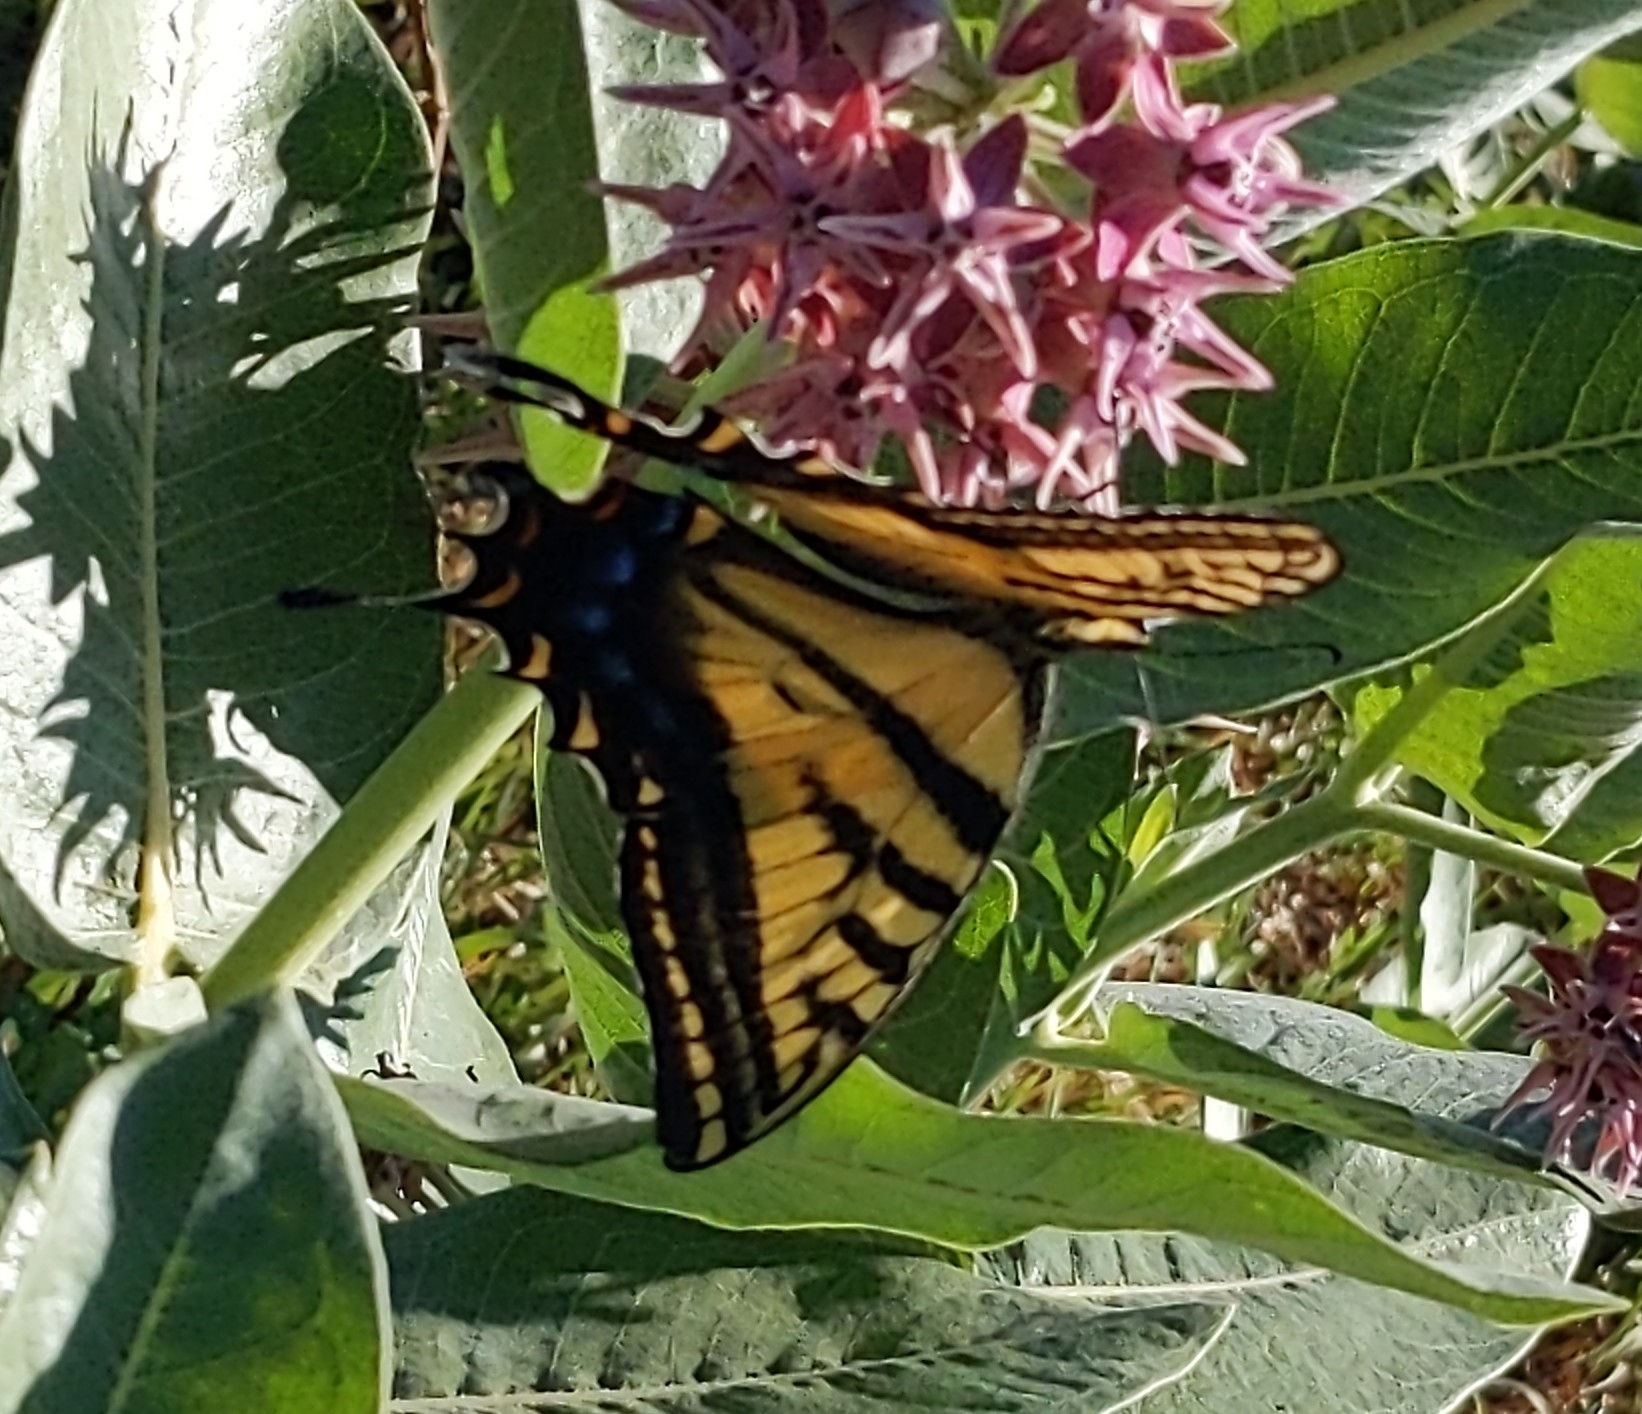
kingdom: Animalia
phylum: Arthropoda
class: Insecta
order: Lepidoptera
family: Papilionidae
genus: Papilio
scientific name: Papilio multicaudata
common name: Two-tailed tiger swallowtail
